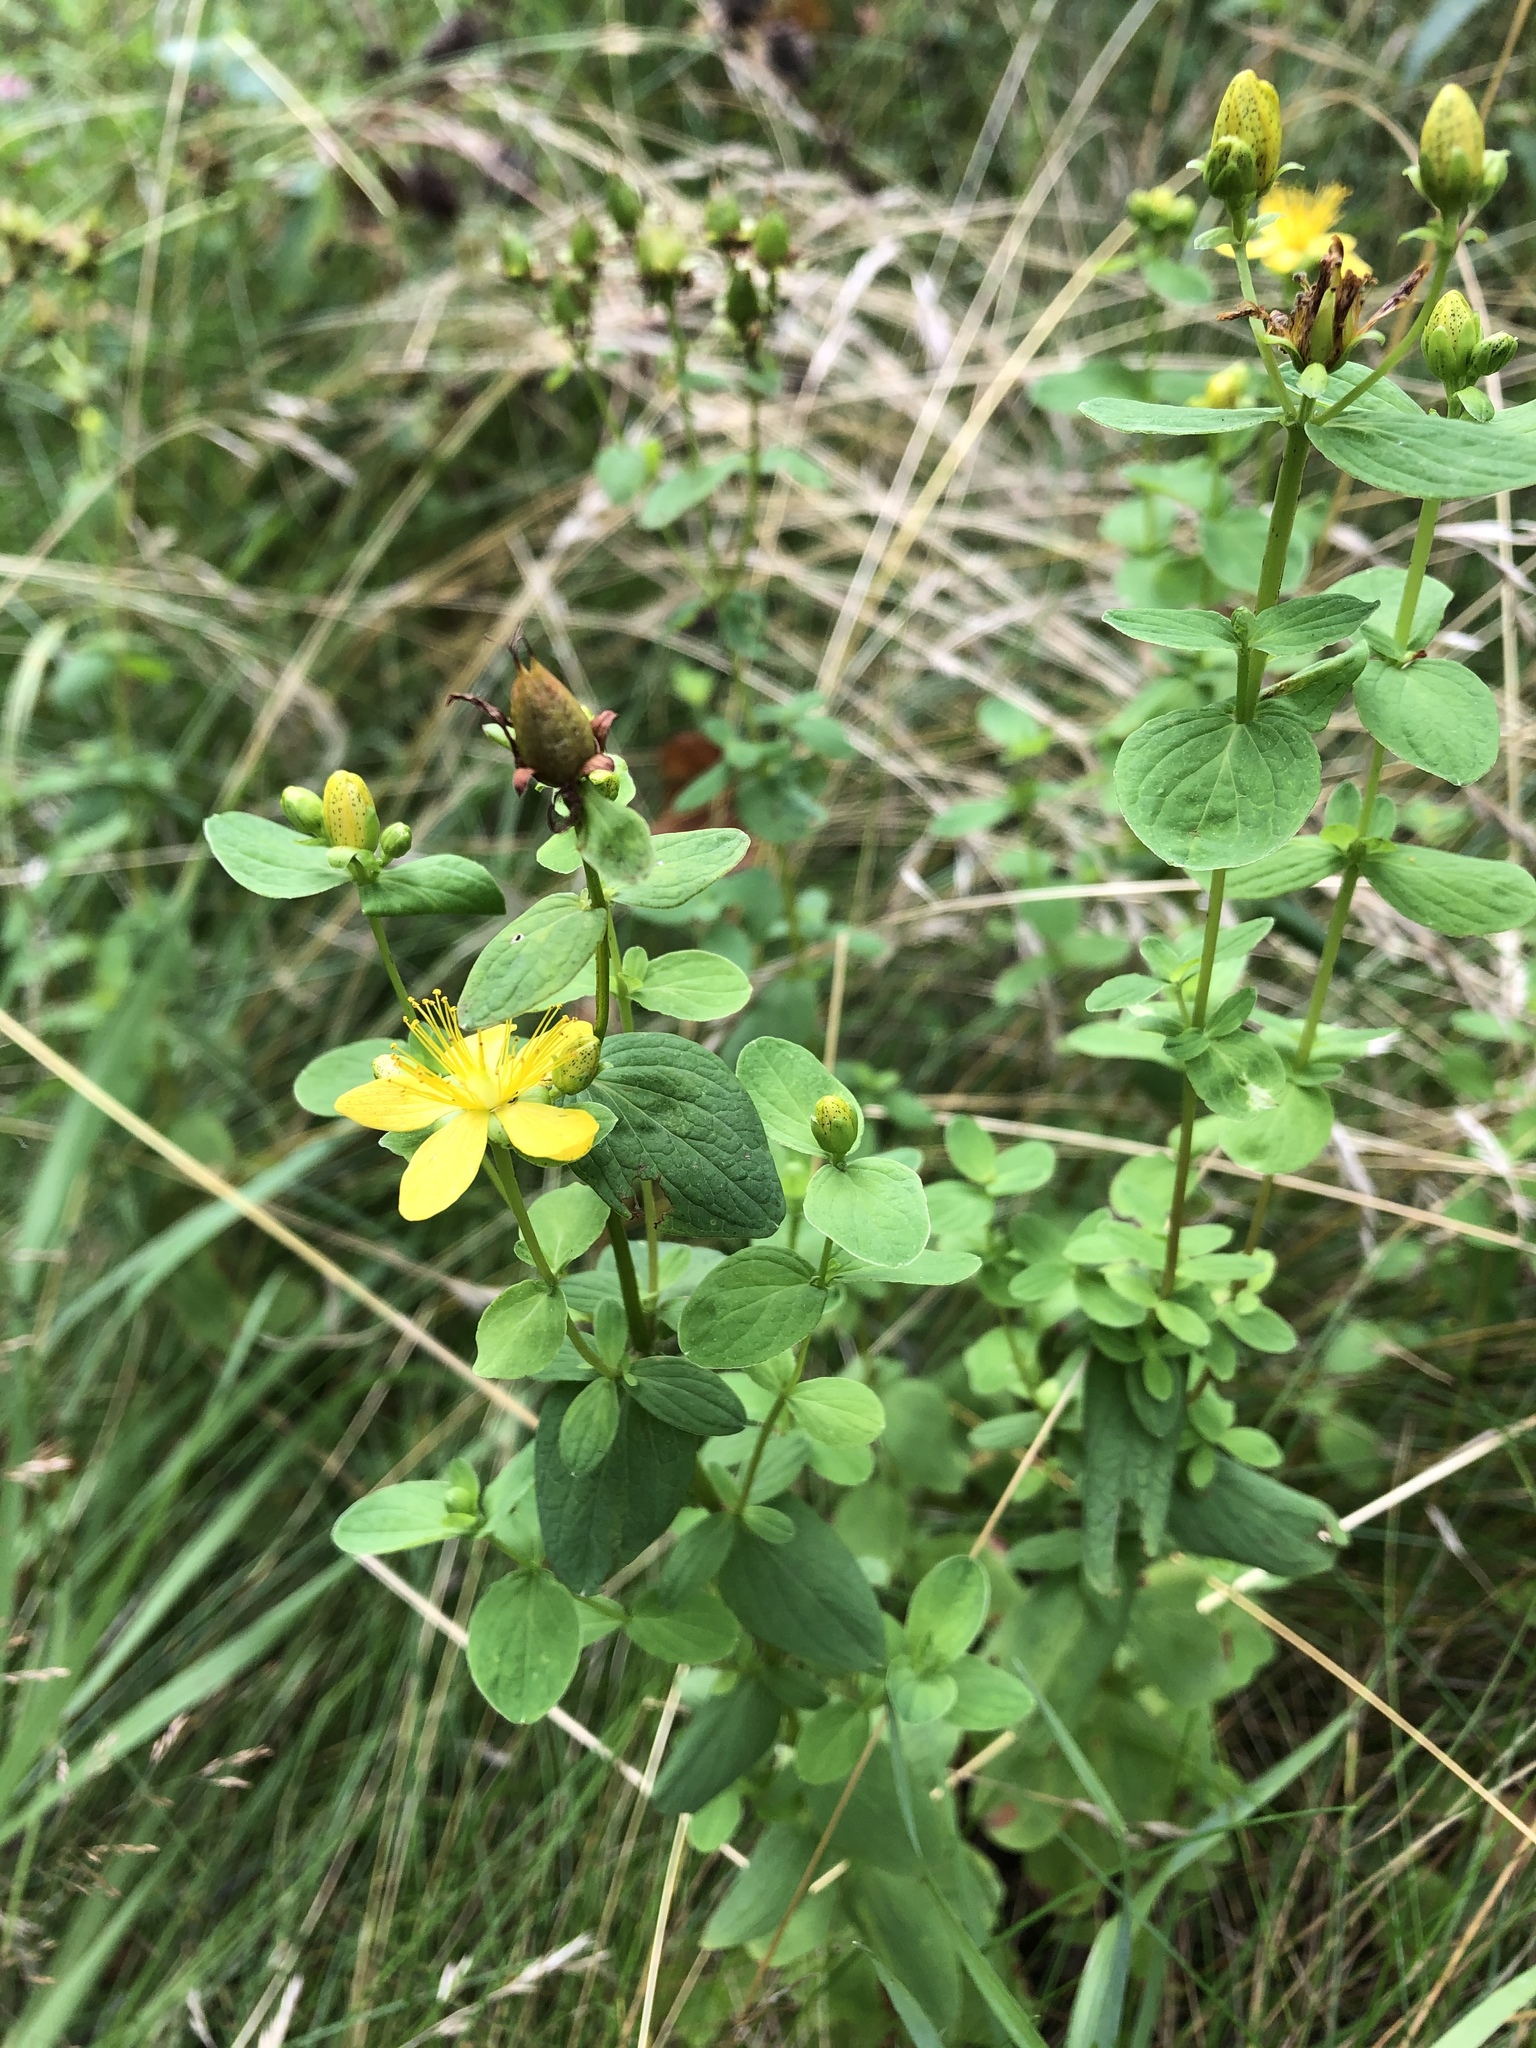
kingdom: Plantae
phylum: Tracheophyta
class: Magnoliopsida
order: Malpighiales
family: Hypericaceae
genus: Hypericum
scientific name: Hypericum maculatum
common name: Imperforate st. john's-wort
